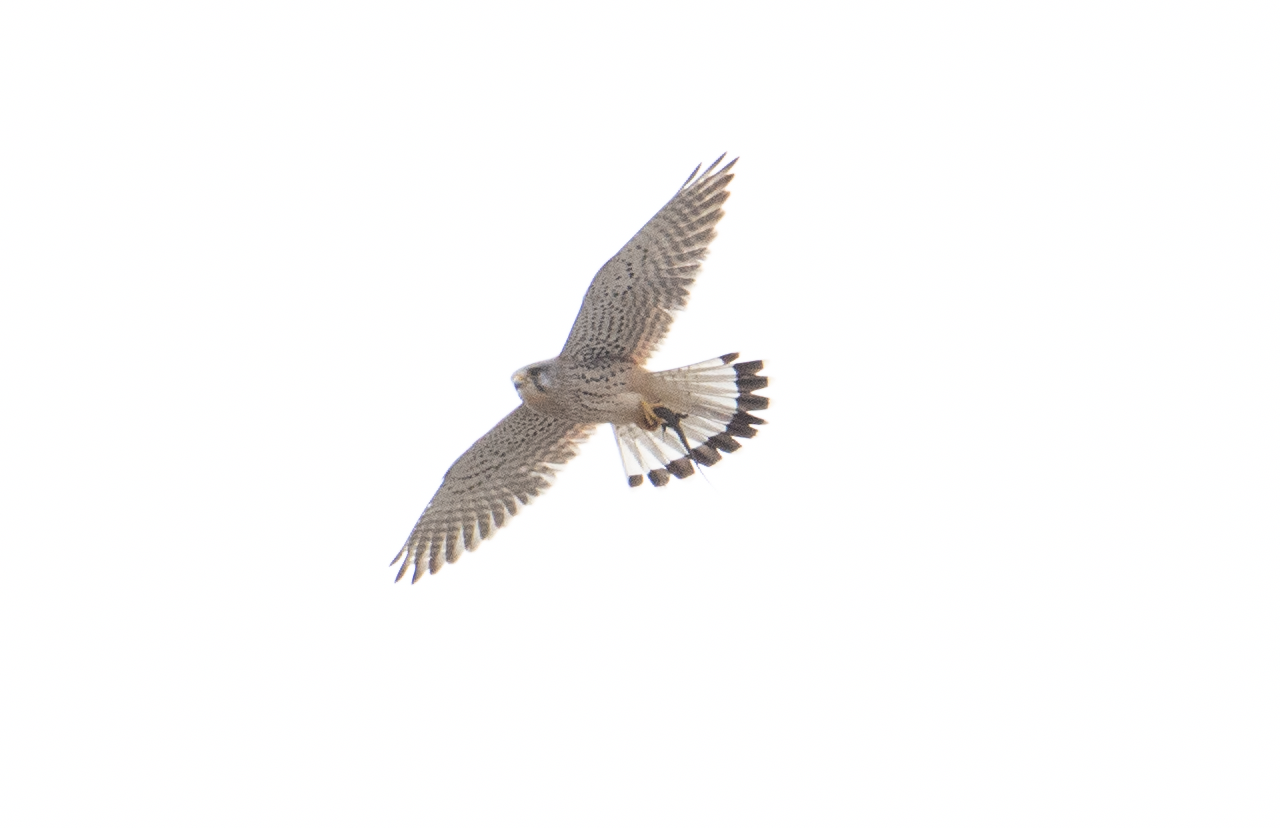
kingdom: Animalia
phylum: Chordata
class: Aves
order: Falconiformes
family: Falconidae
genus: Falco
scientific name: Falco tinnunculus
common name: Common kestrel
